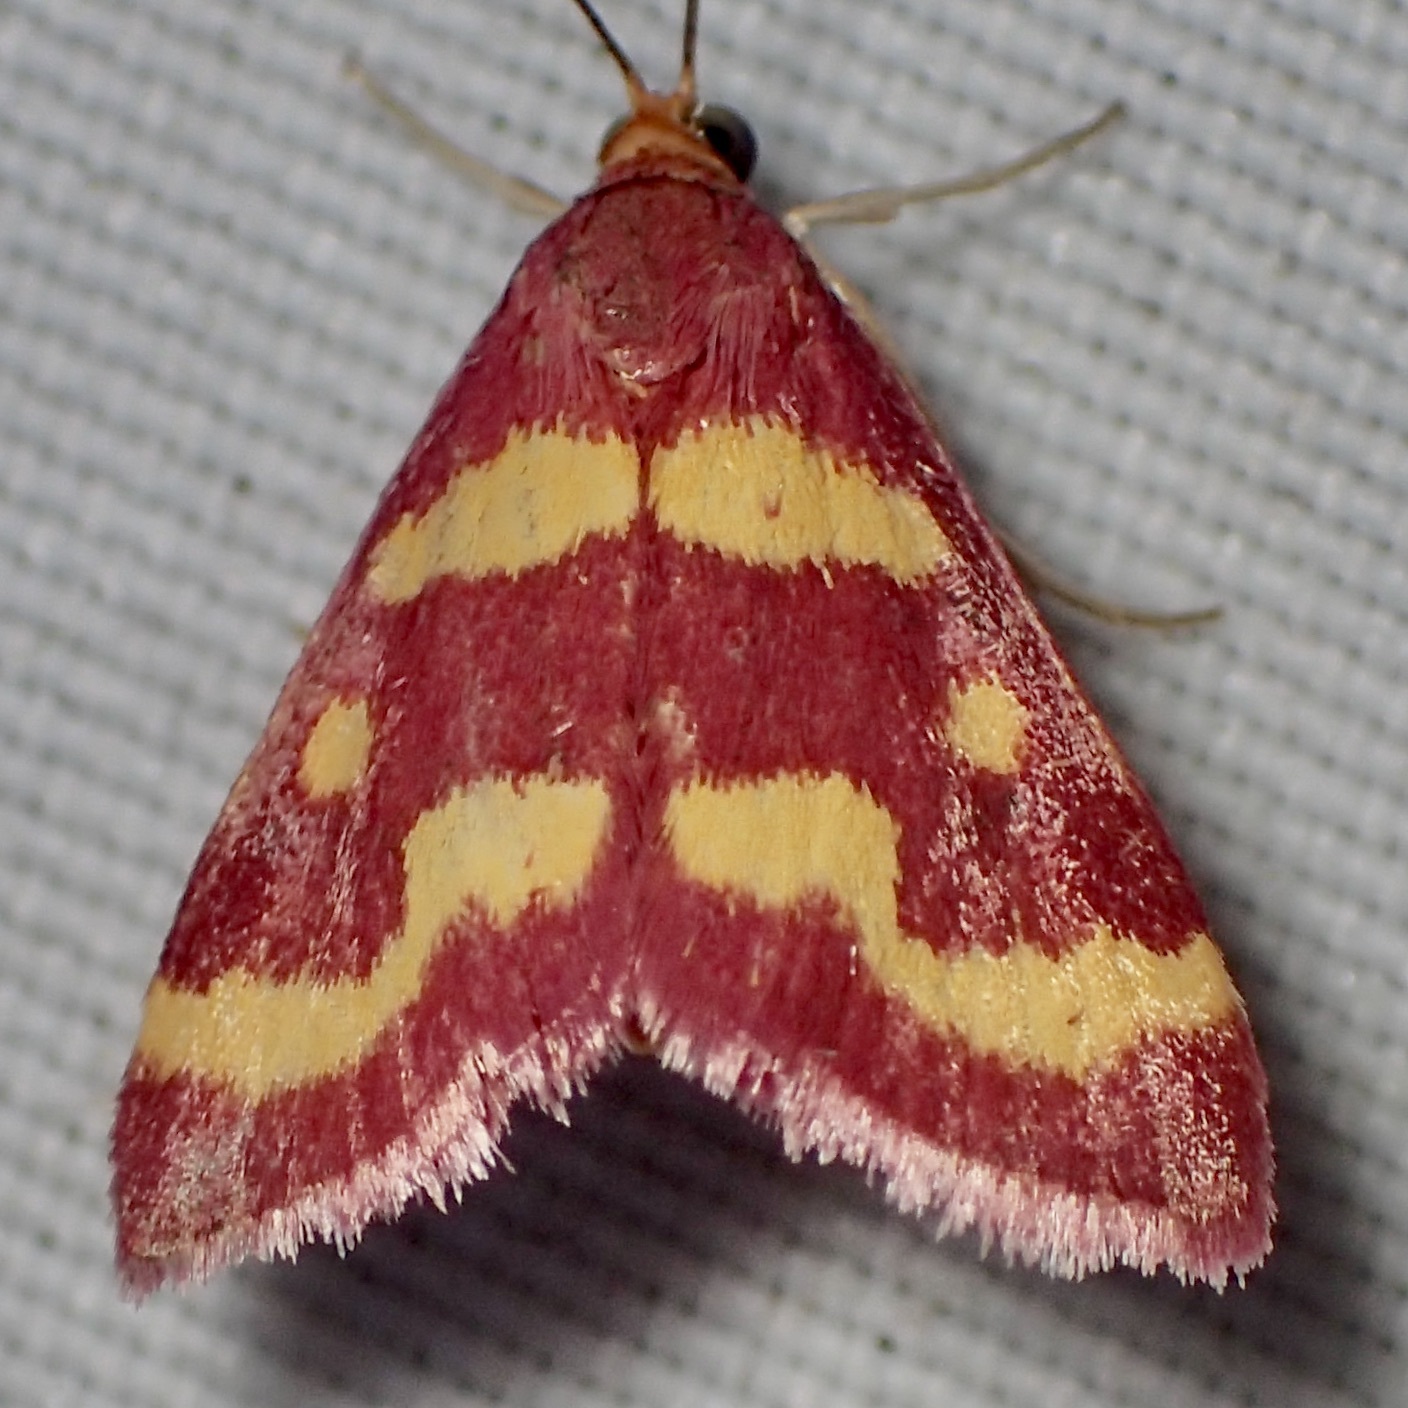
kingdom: Animalia
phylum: Arthropoda
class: Insecta
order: Lepidoptera
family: Crambidae
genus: Pyrausta
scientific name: Pyrausta tyralis
